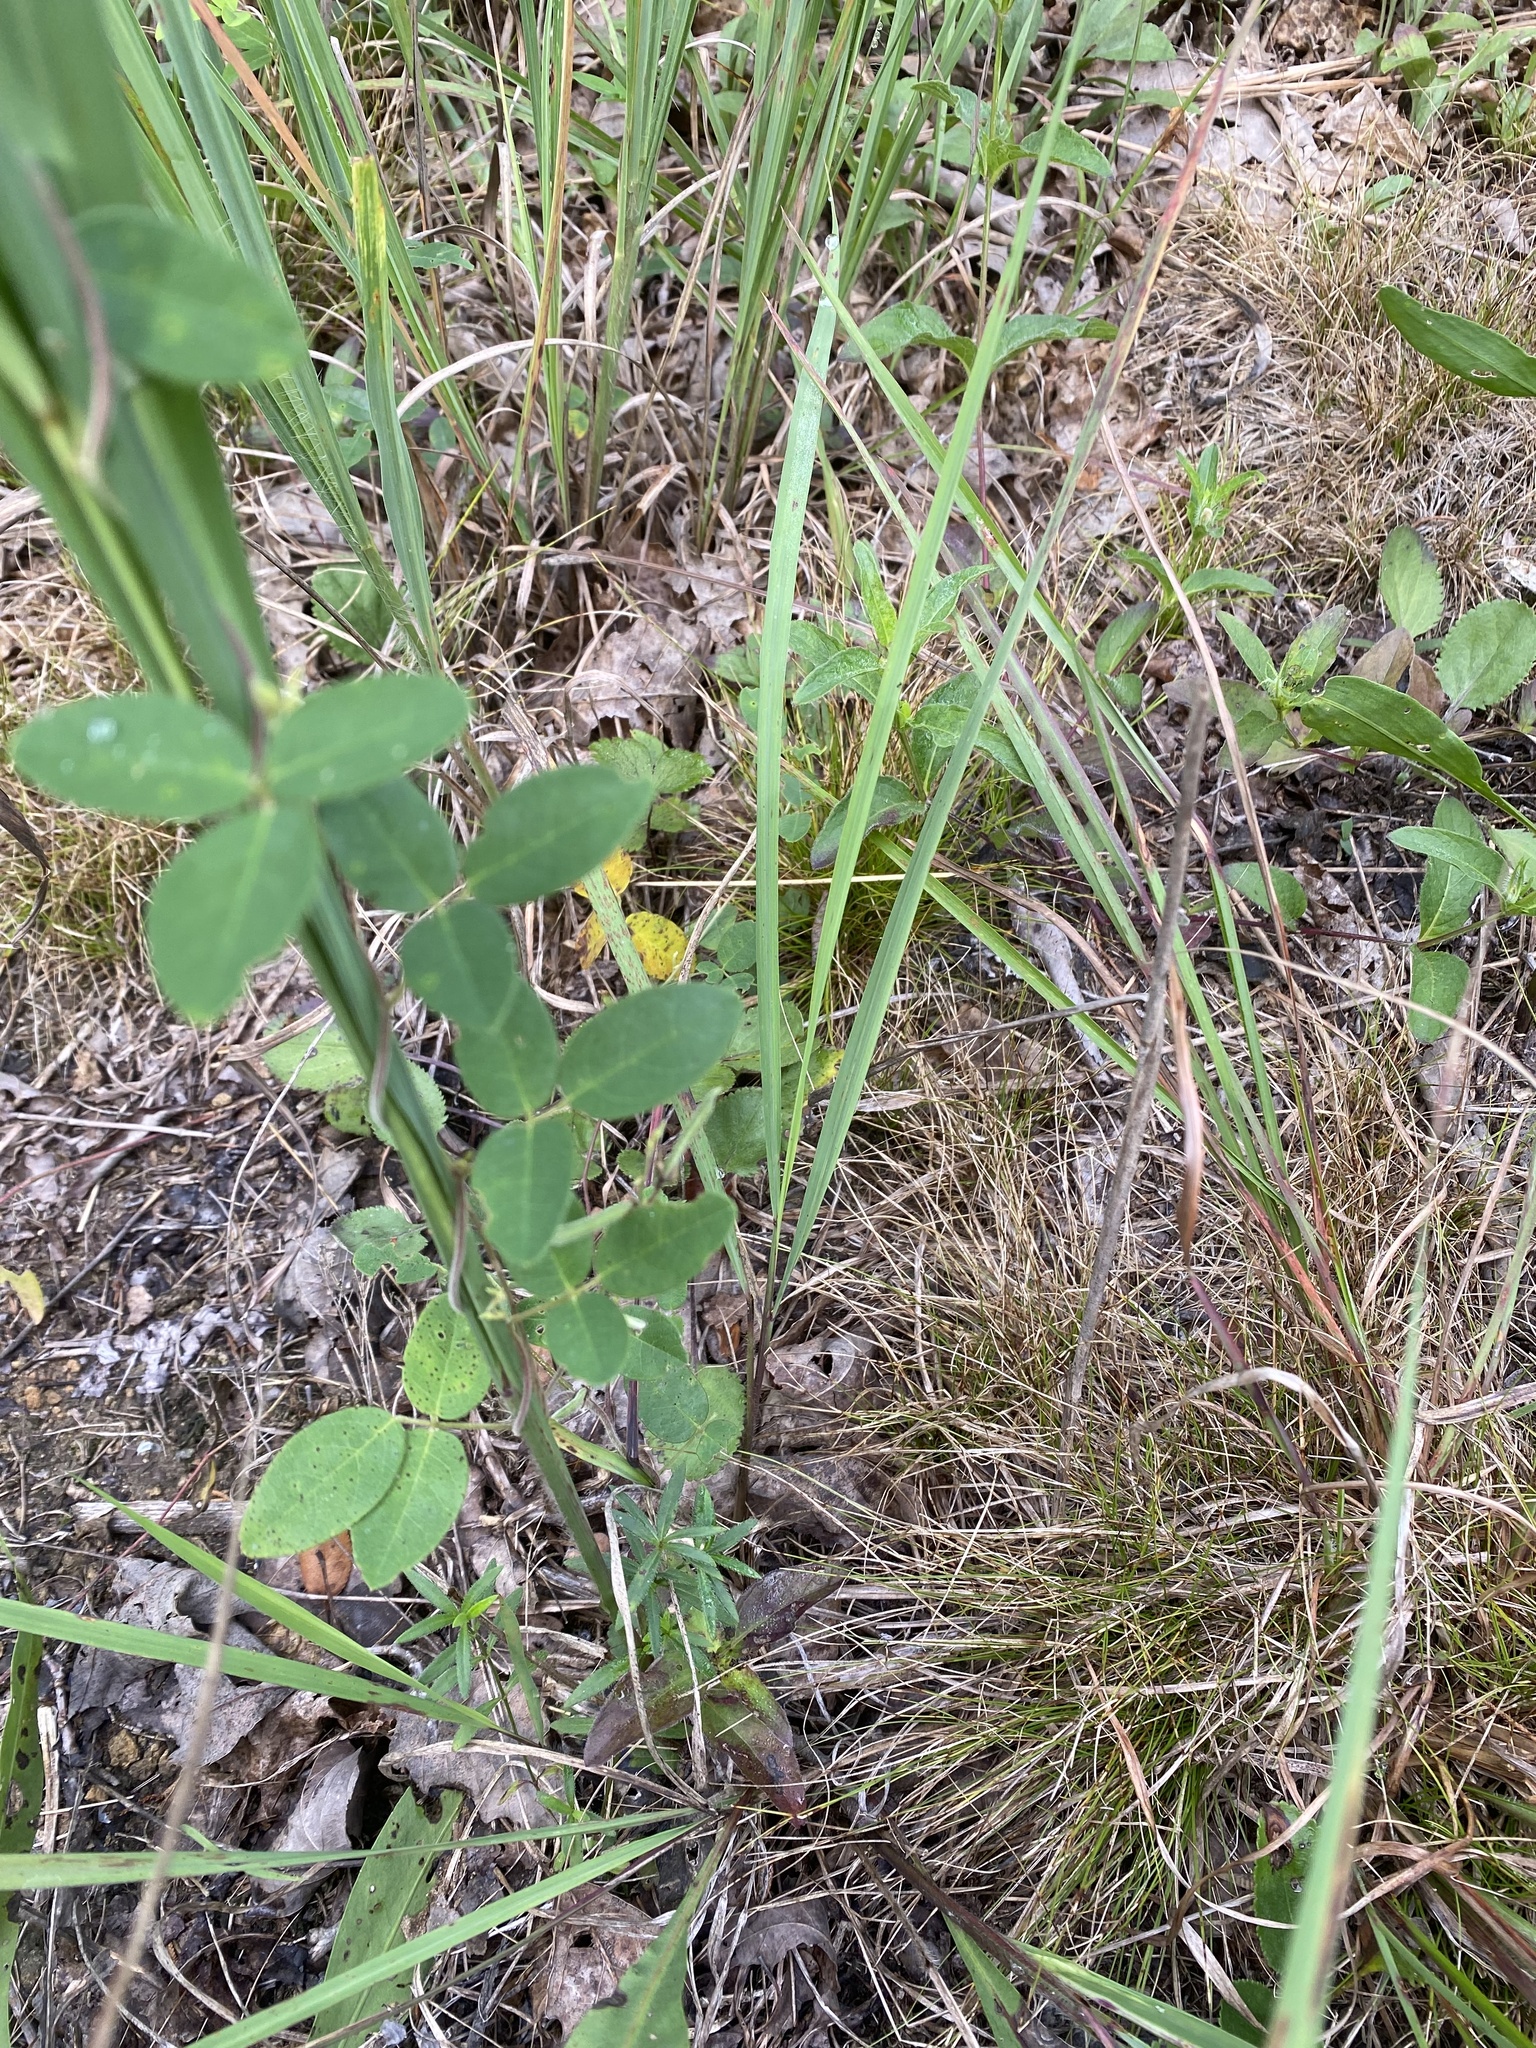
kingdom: Plantae
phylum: Tracheophyta
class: Magnoliopsida
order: Fabales
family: Fabaceae
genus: Galactia
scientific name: Galactia regularis
